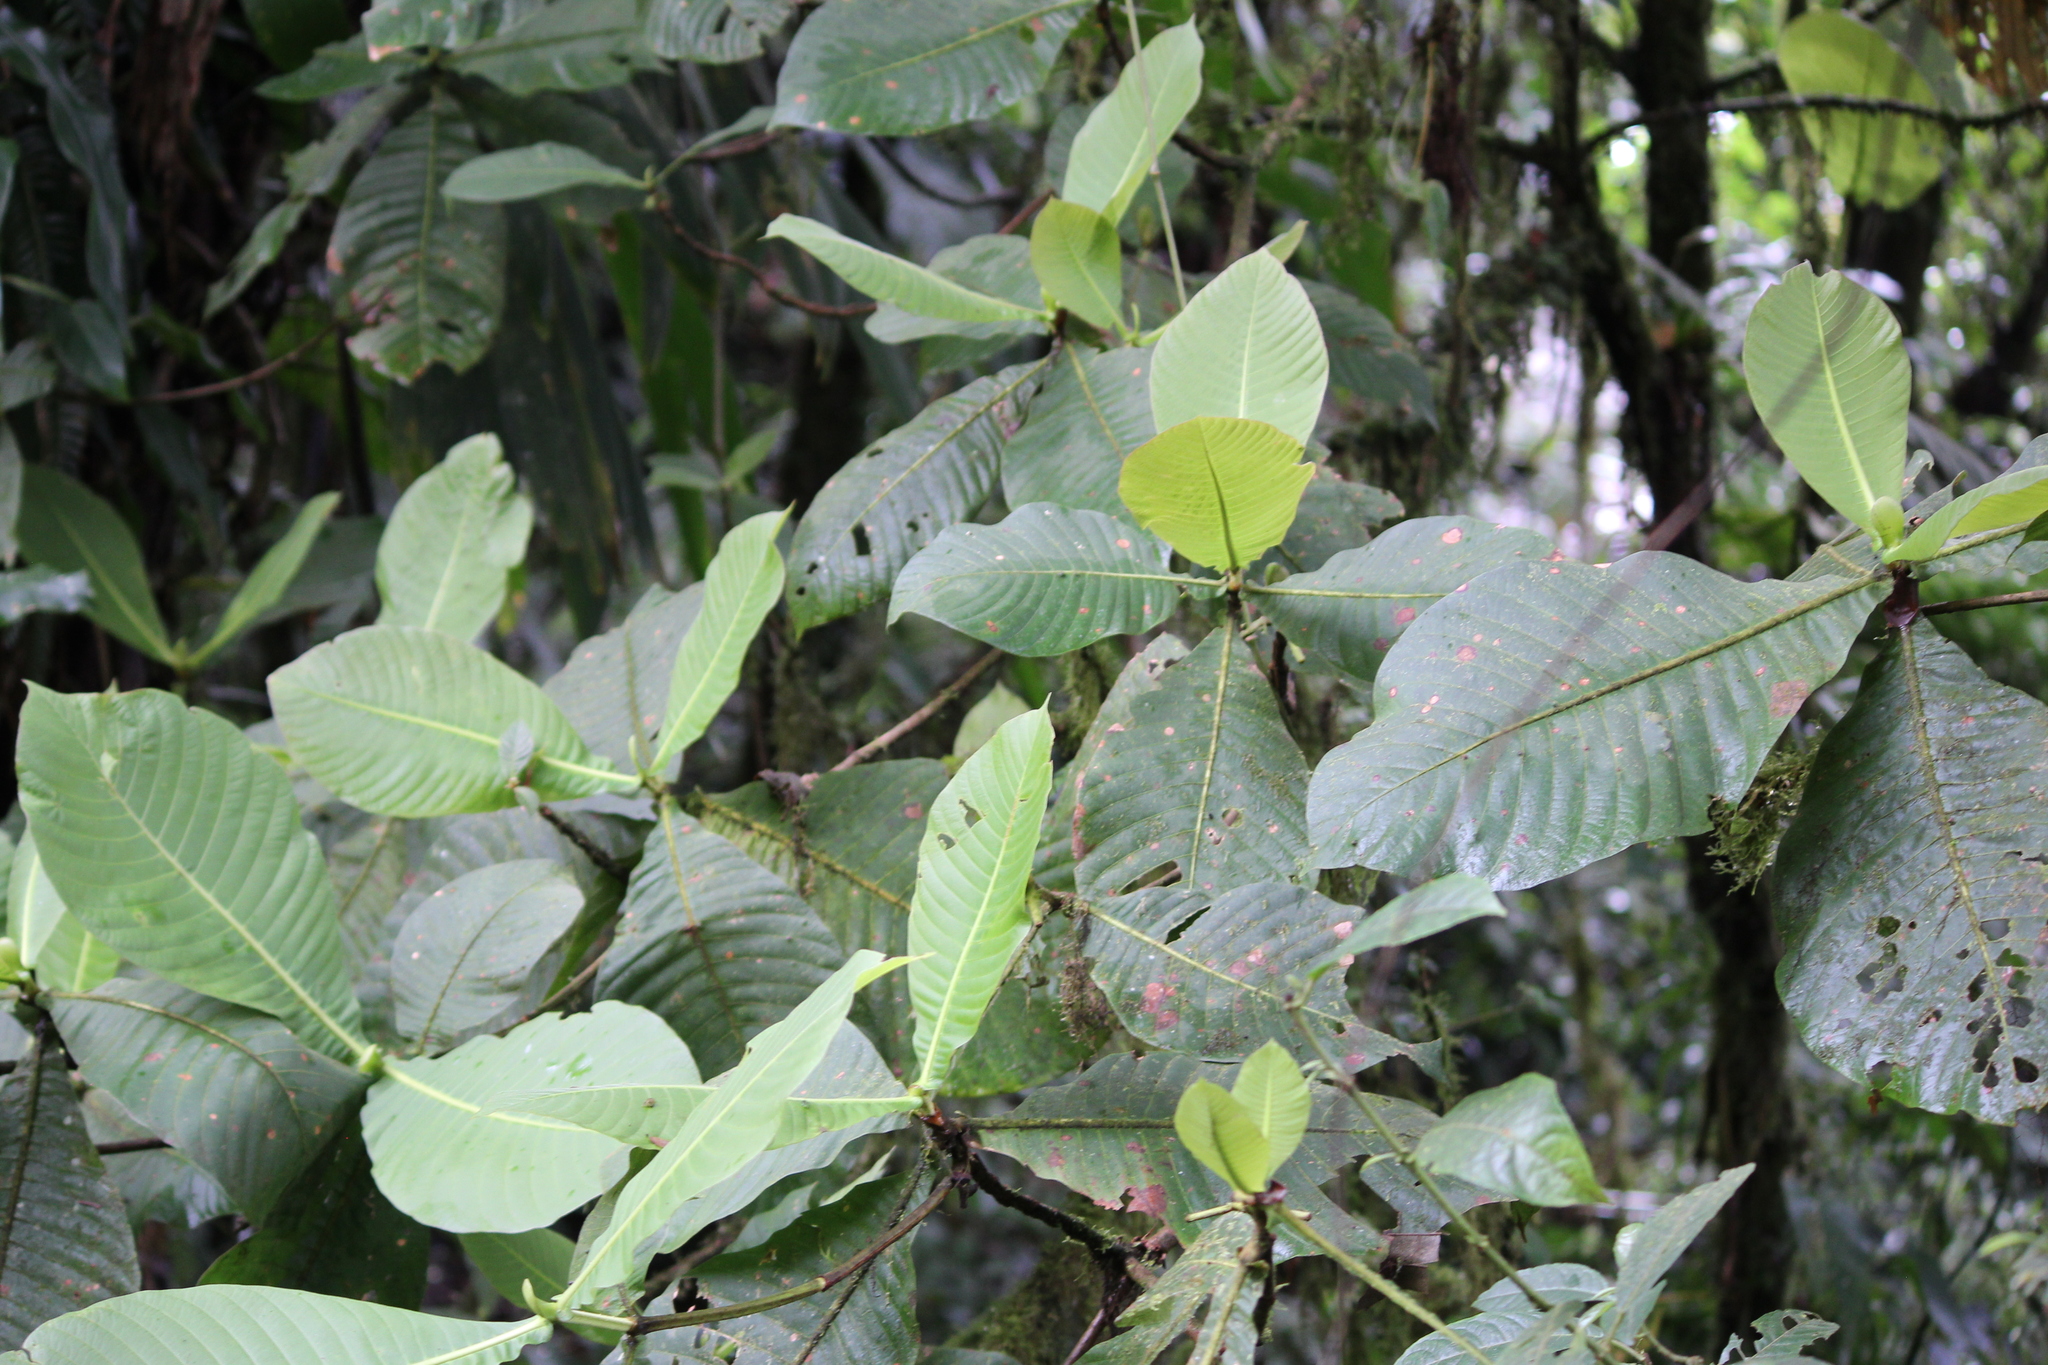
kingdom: Plantae
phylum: Tracheophyta
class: Magnoliopsida
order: Gentianales
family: Rubiaceae
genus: Elaeagia
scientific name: Elaeagia auriculata
